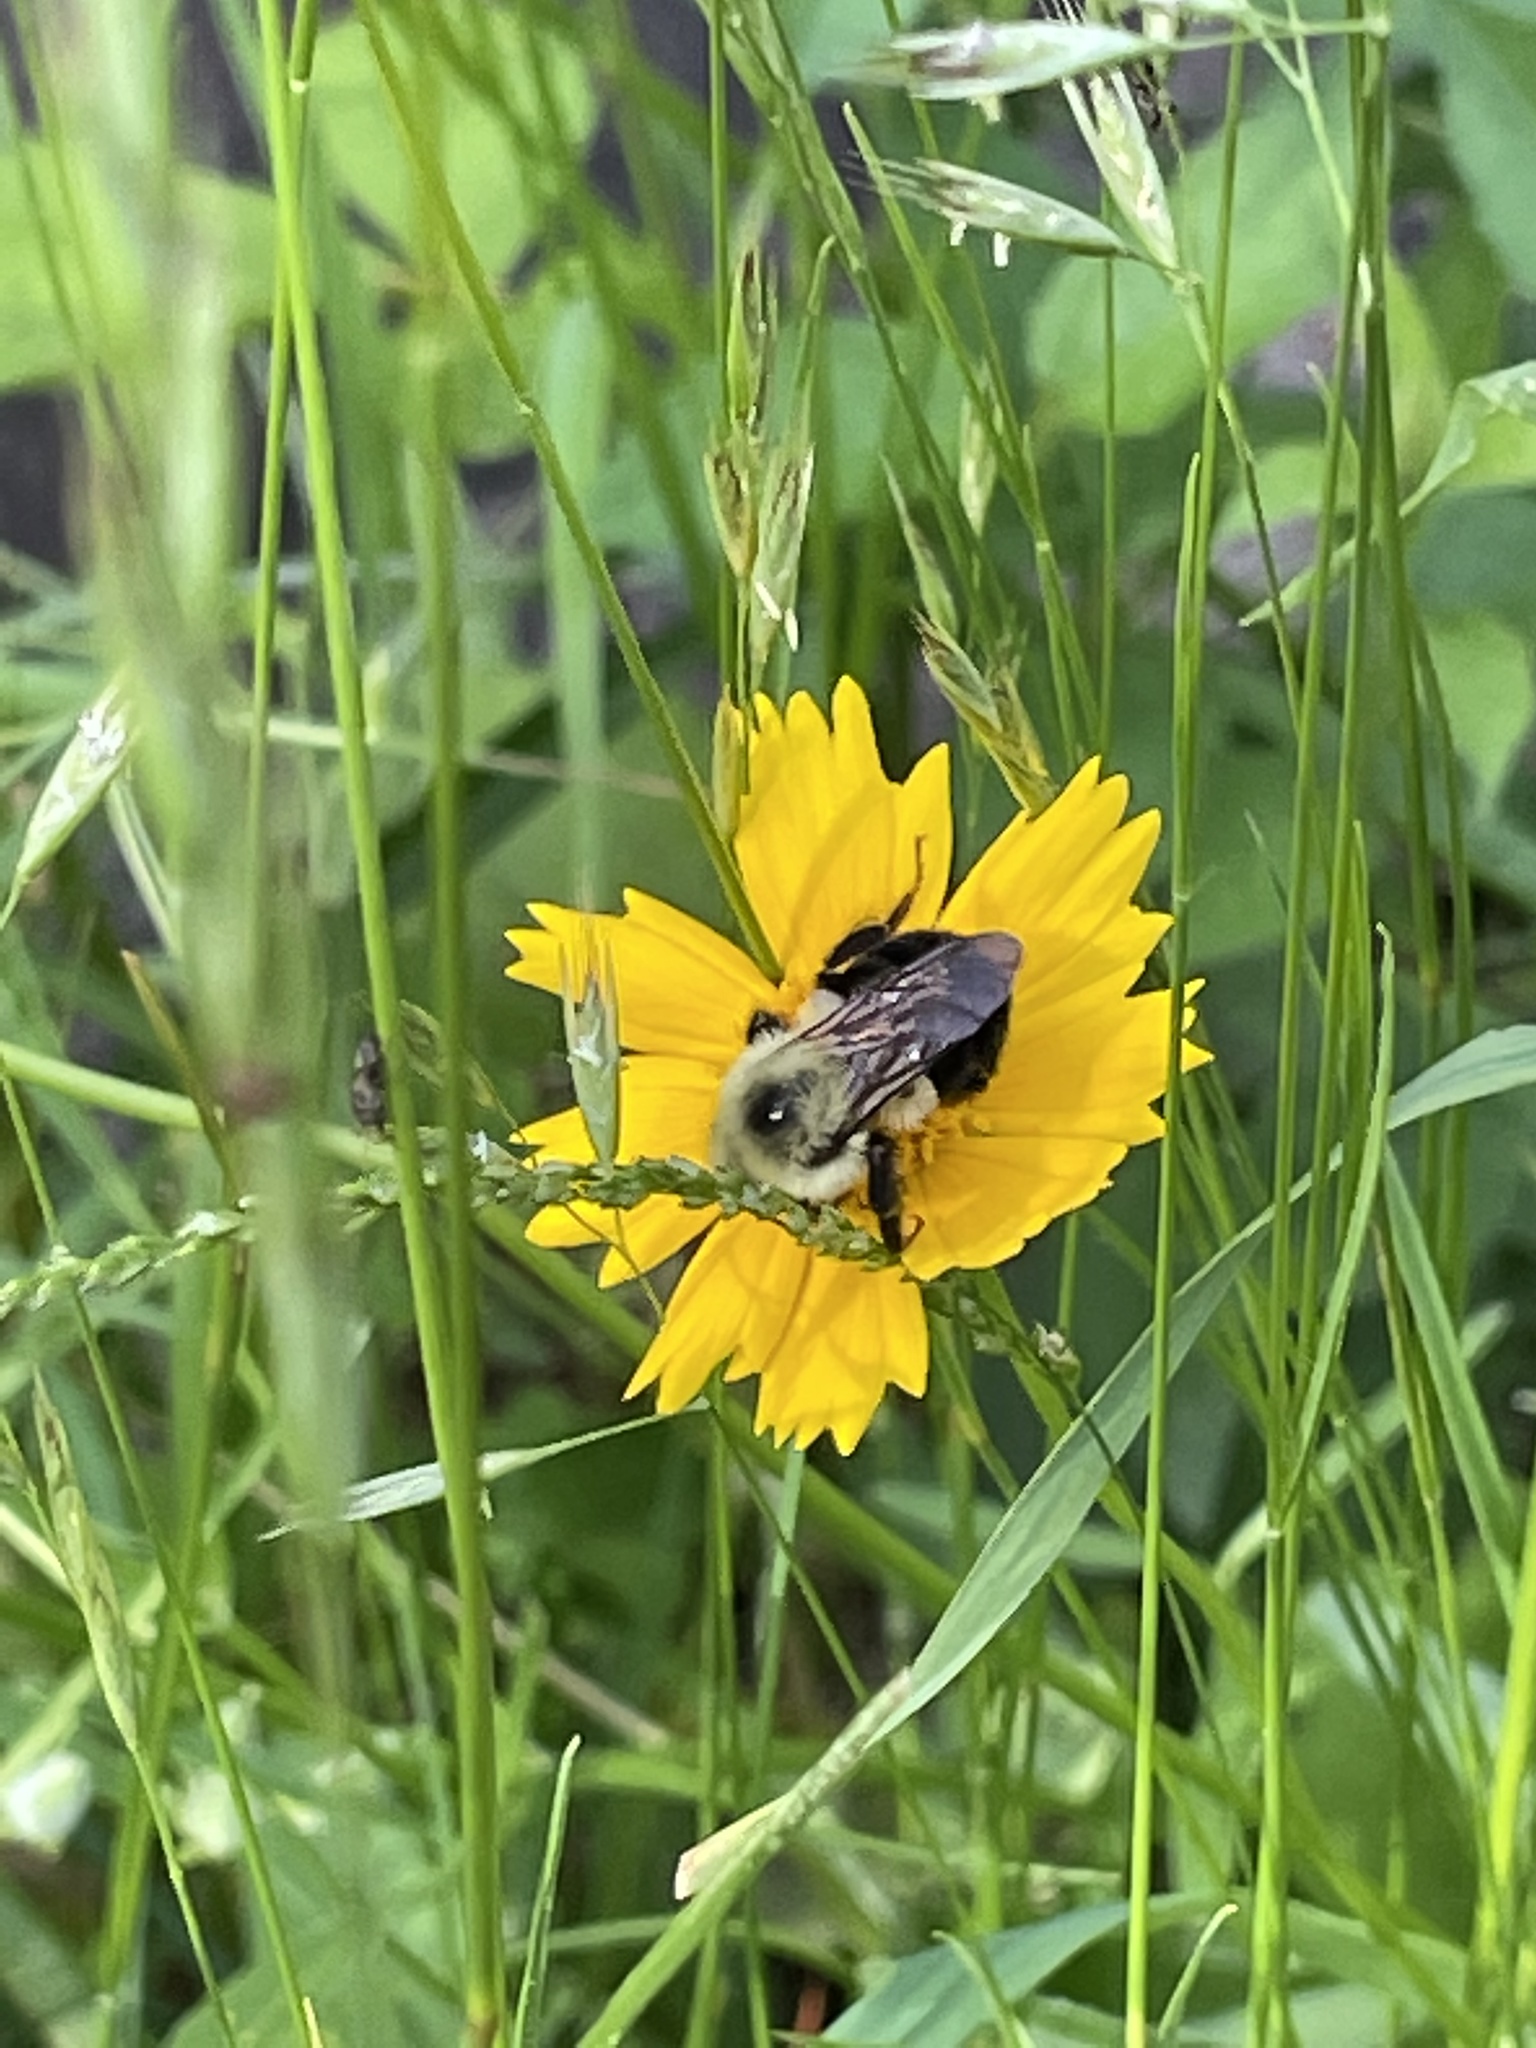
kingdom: Animalia
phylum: Arthropoda
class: Insecta
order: Hymenoptera
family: Apidae
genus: Bombus
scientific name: Bombus bimaculatus
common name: Two-spotted bumble bee
